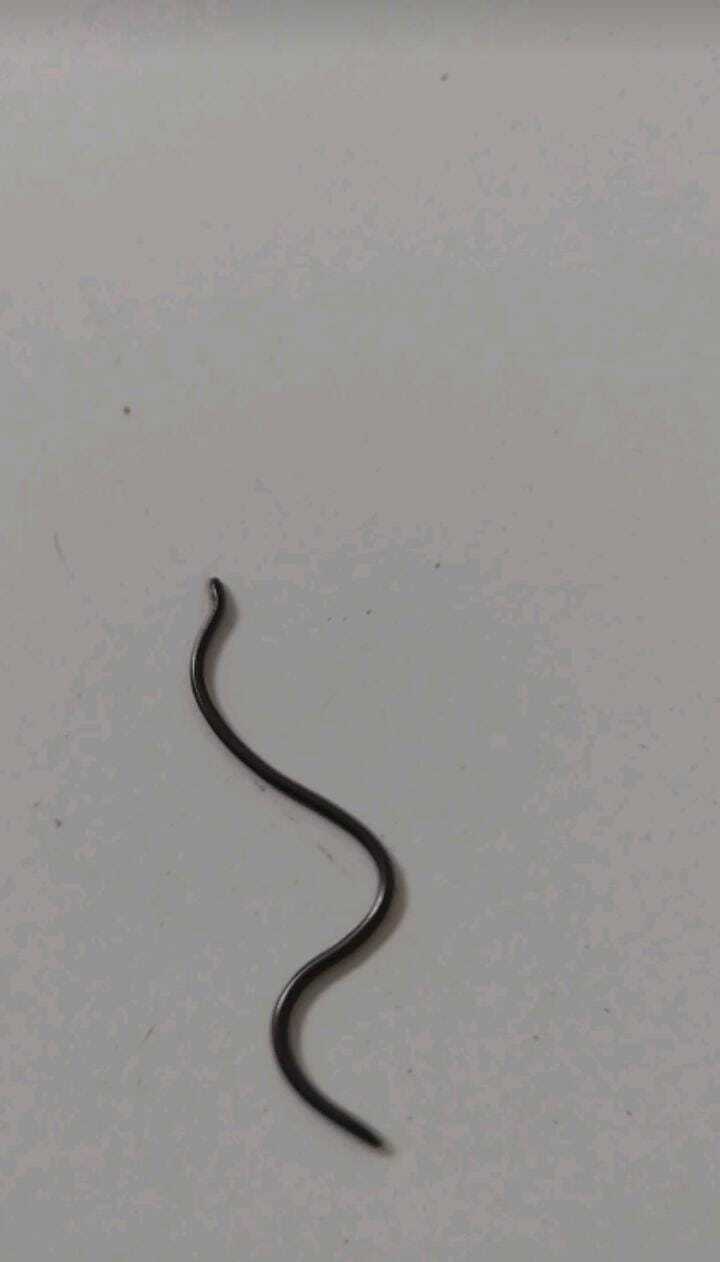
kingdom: Animalia
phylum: Chordata
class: Squamata
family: Leptotyphlopidae
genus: Epictia
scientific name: Epictia borapeliotes
